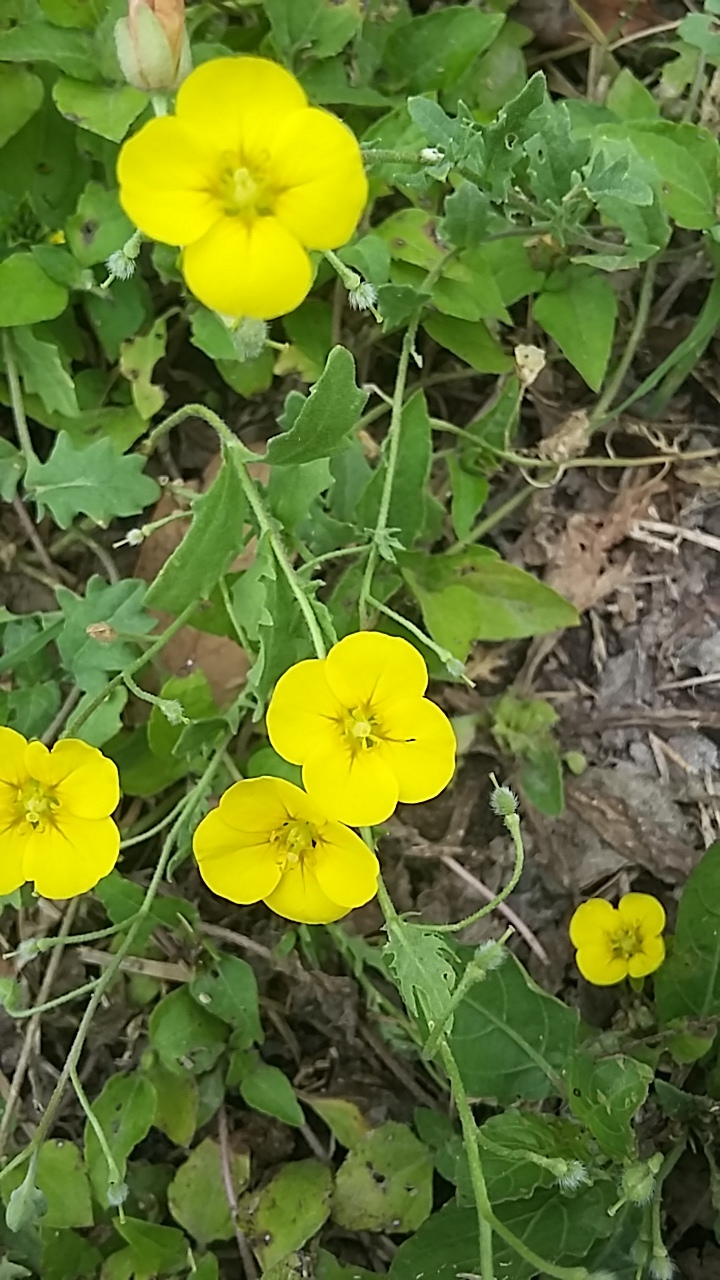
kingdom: Plantae
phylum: Tracheophyta
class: Magnoliopsida
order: Brassicales
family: Brassicaceae
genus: Paysonia
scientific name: Paysonia lasiocarpa
